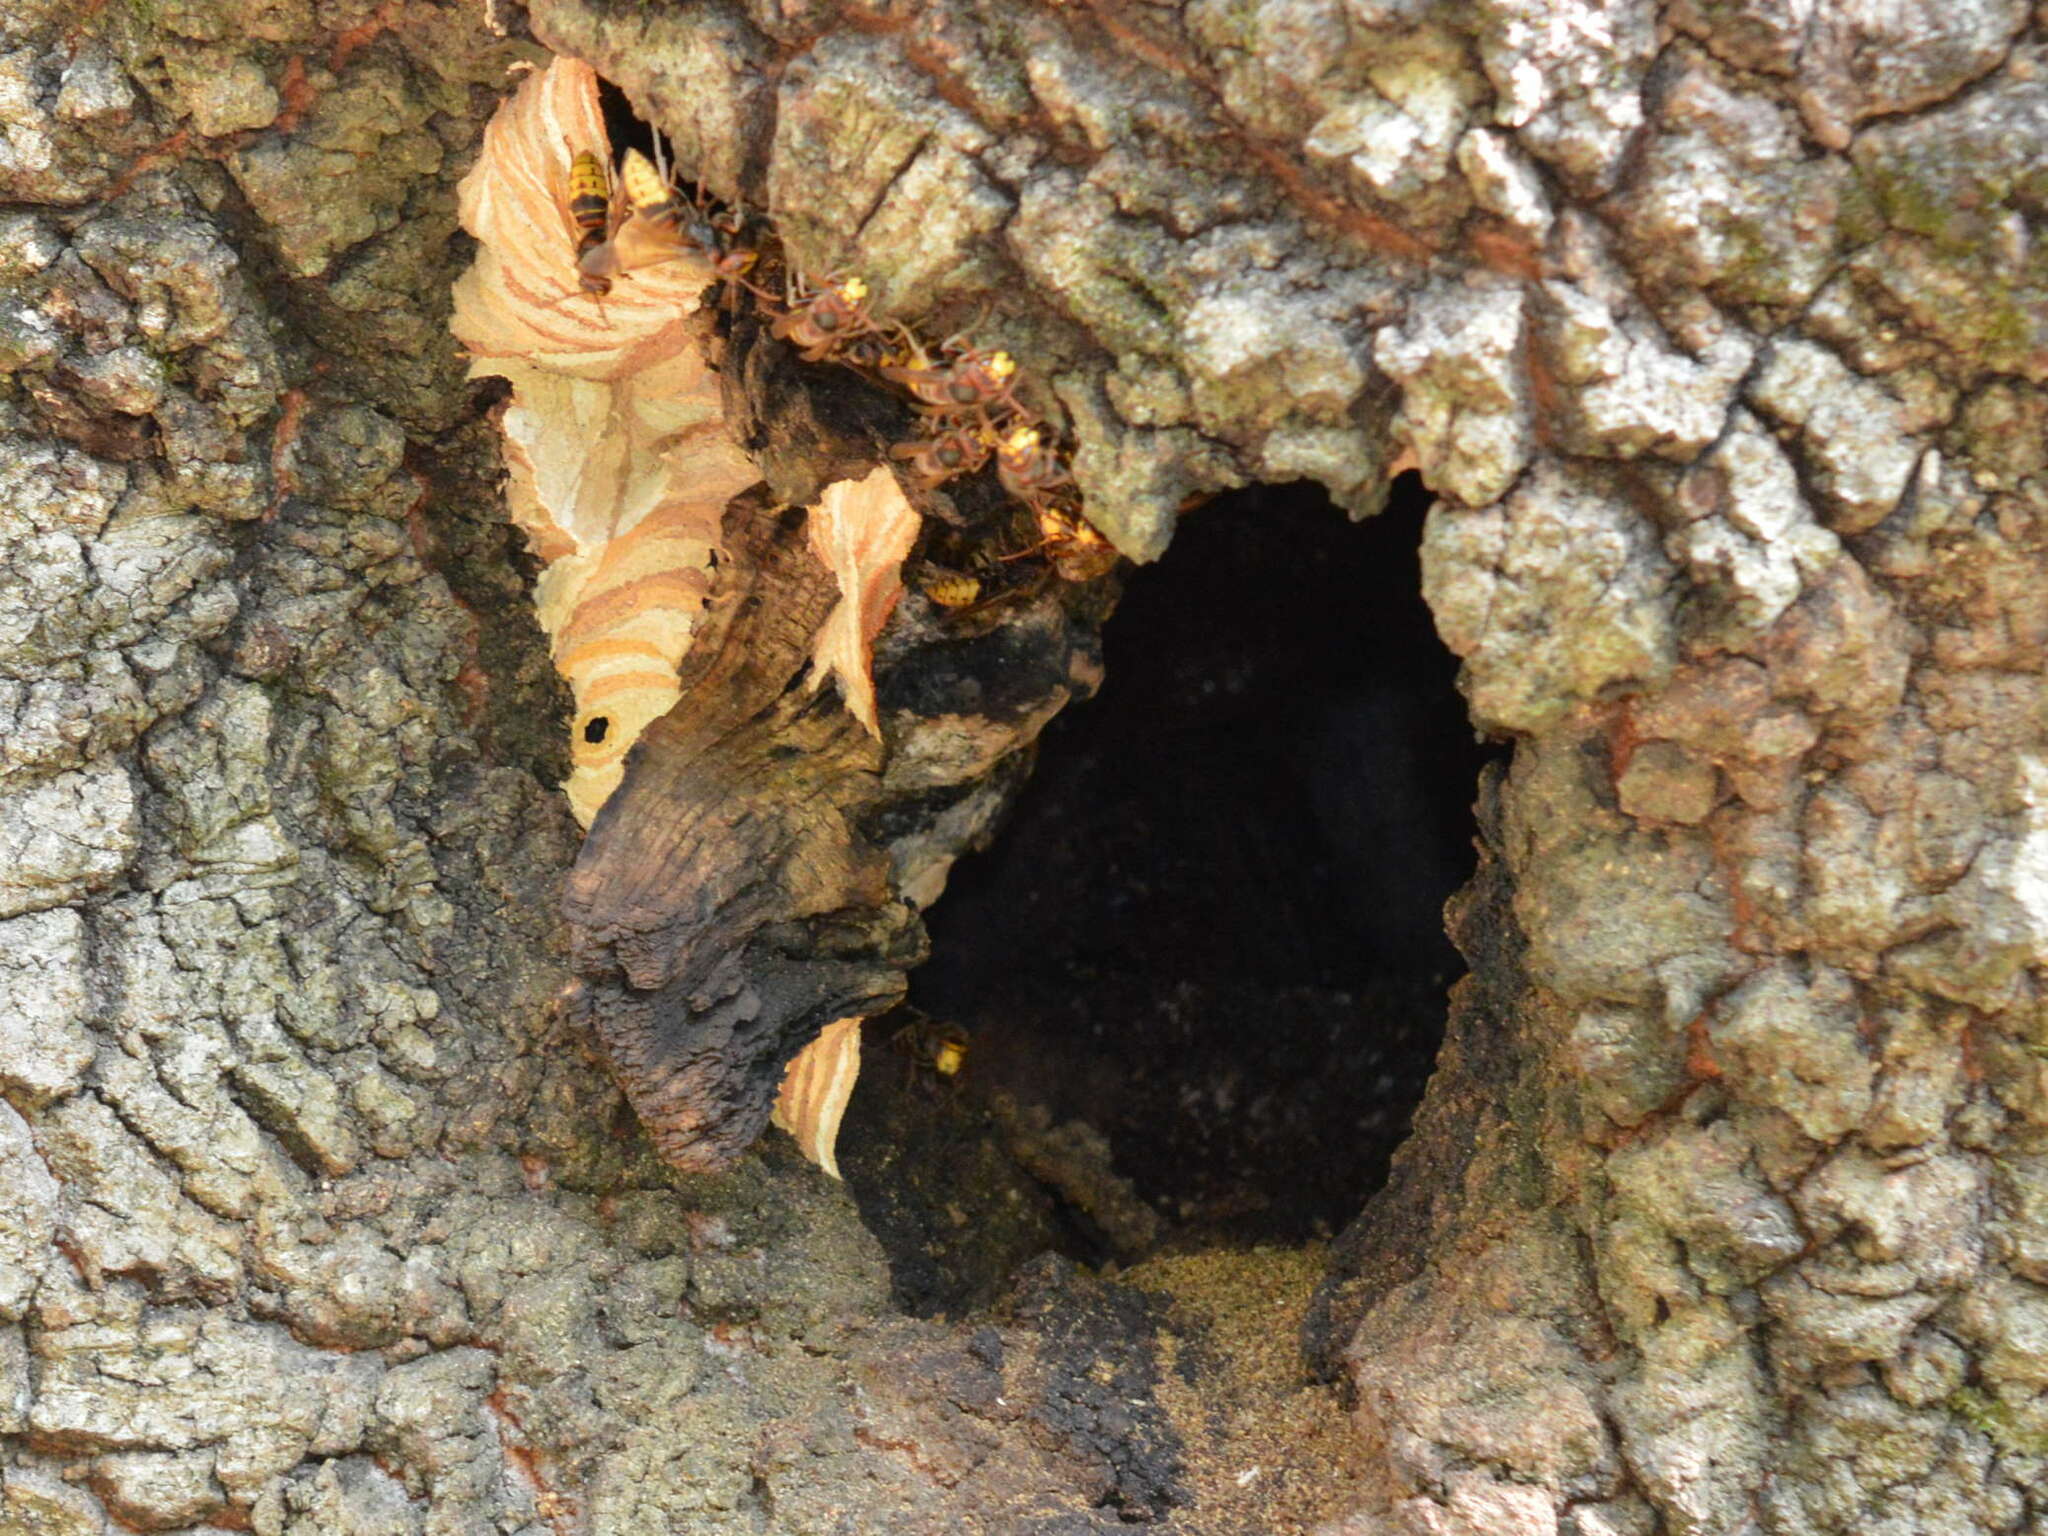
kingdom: Animalia
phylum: Arthropoda
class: Insecta
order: Hymenoptera
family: Vespidae
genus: Vespa
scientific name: Vespa crabro
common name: Hornet
